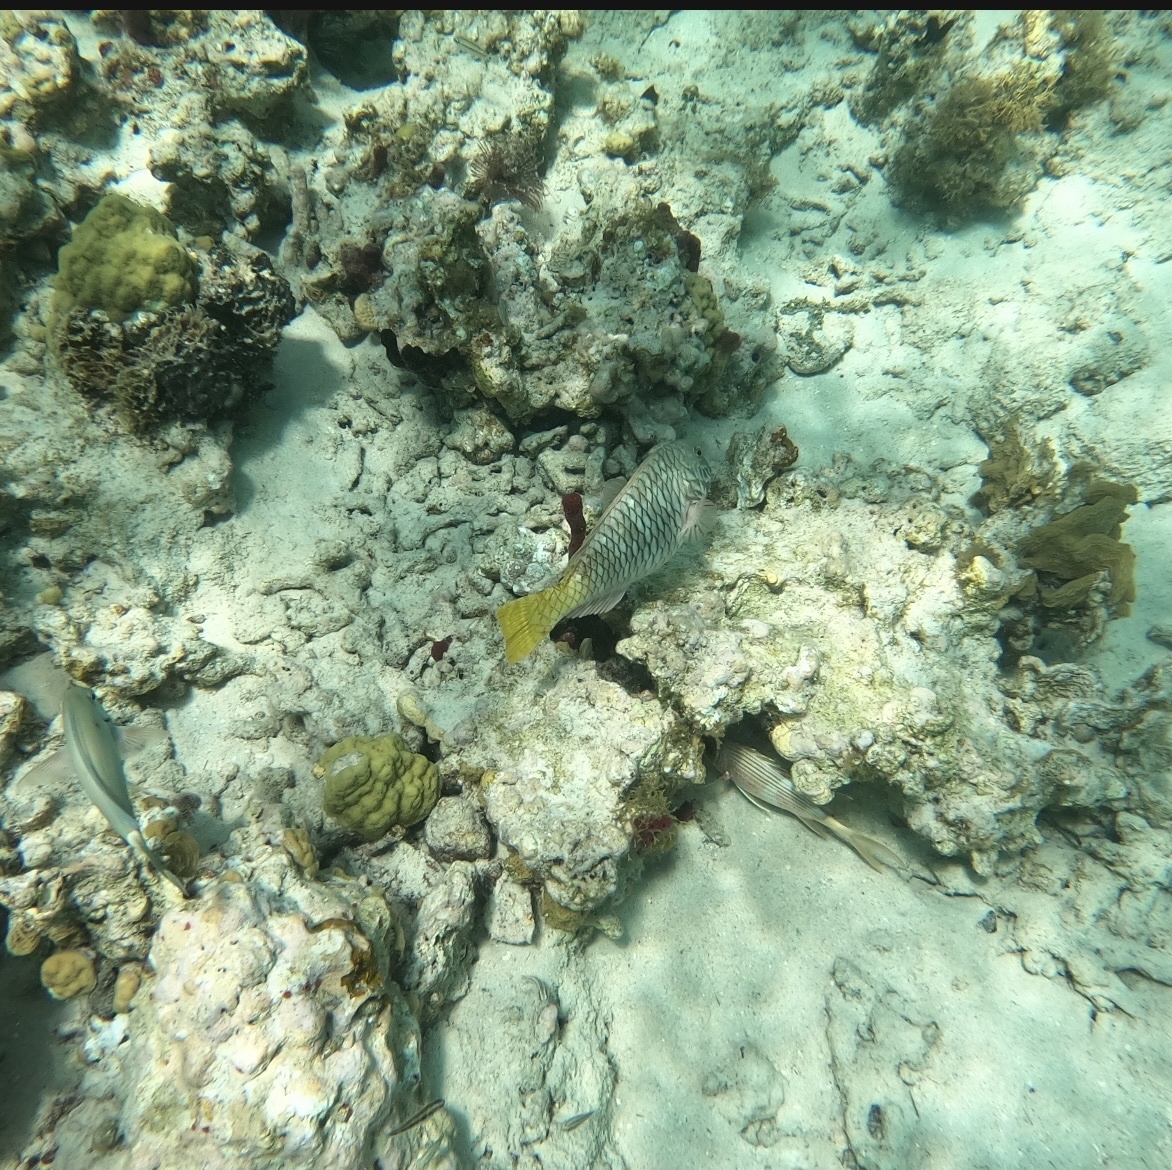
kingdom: Animalia
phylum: Chordata
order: Perciformes
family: Scaridae
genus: Sparisoma
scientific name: Sparisoma rubripinne
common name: Redfin parrotfish
